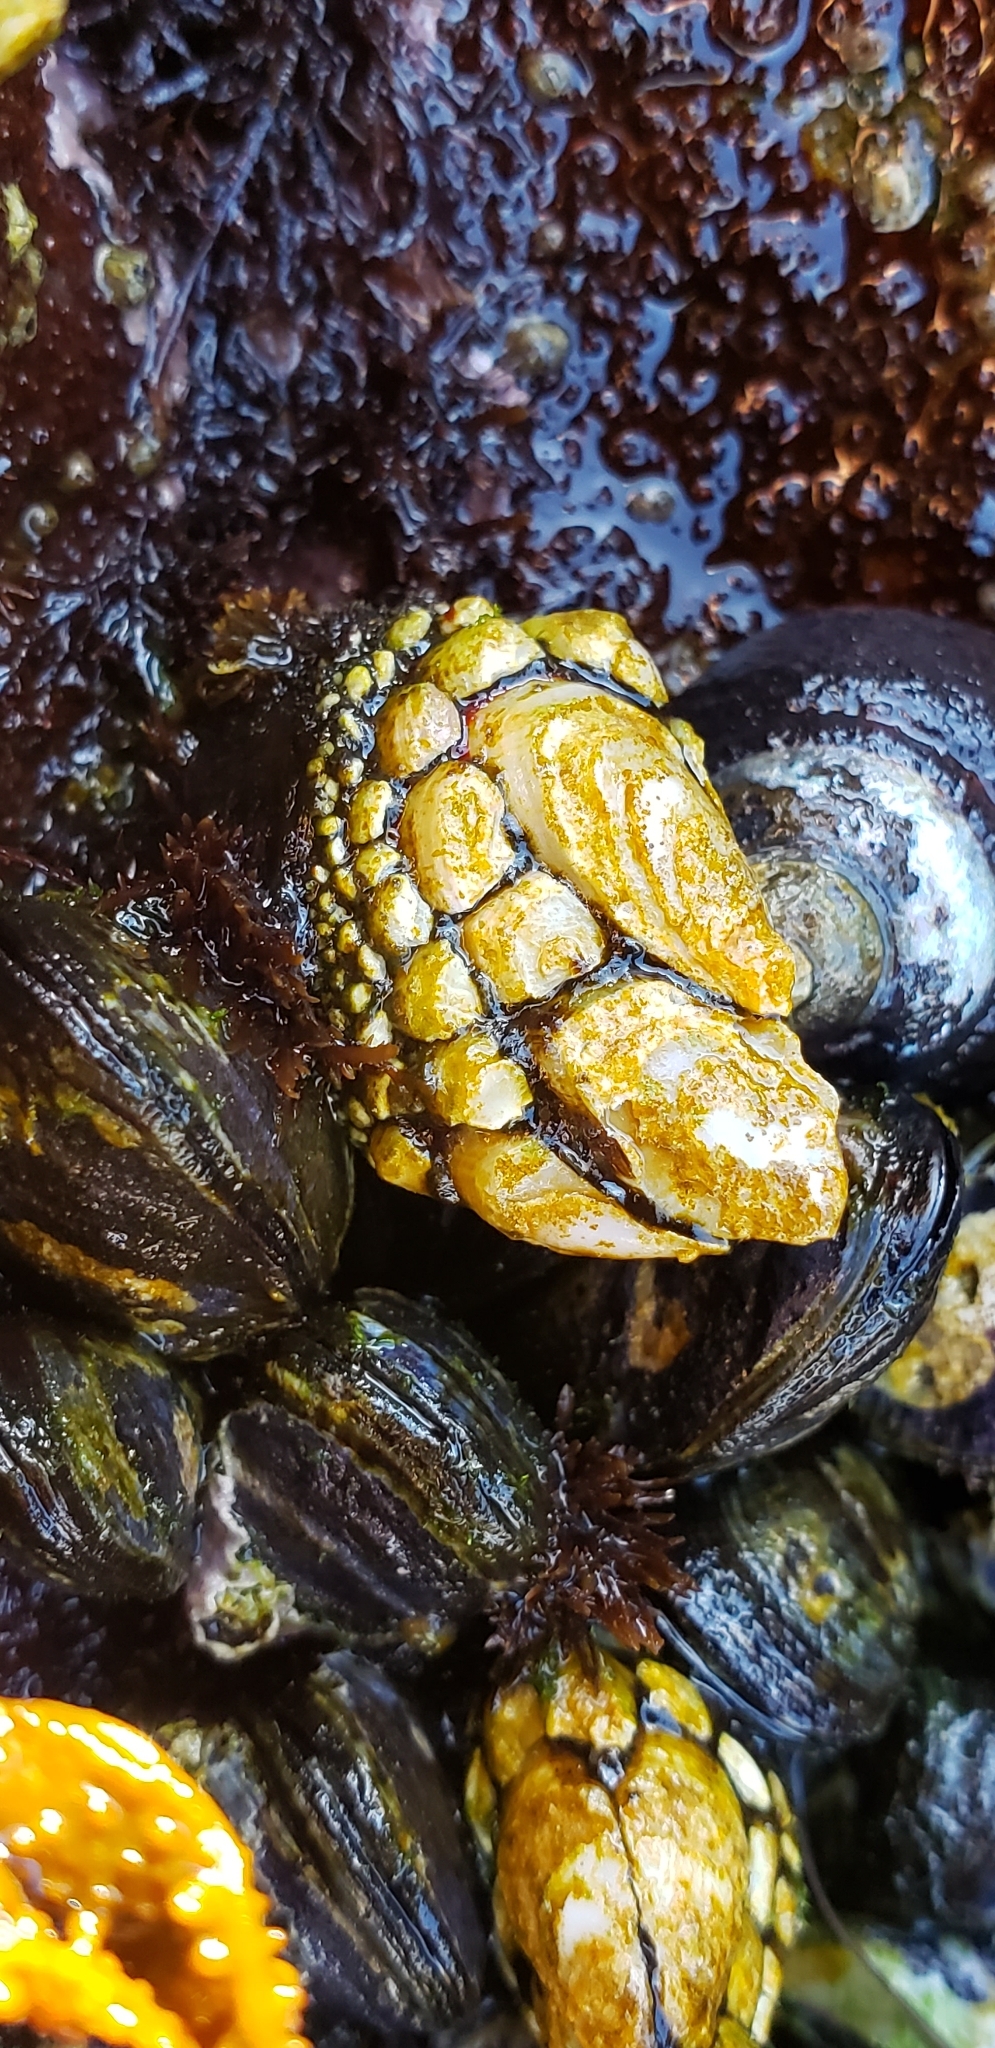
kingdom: Animalia
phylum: Arthropoda
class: Maxillopoda
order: Pedunculata
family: Pollicipedidae
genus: Pollicipes
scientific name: Pollicipes polymerus
